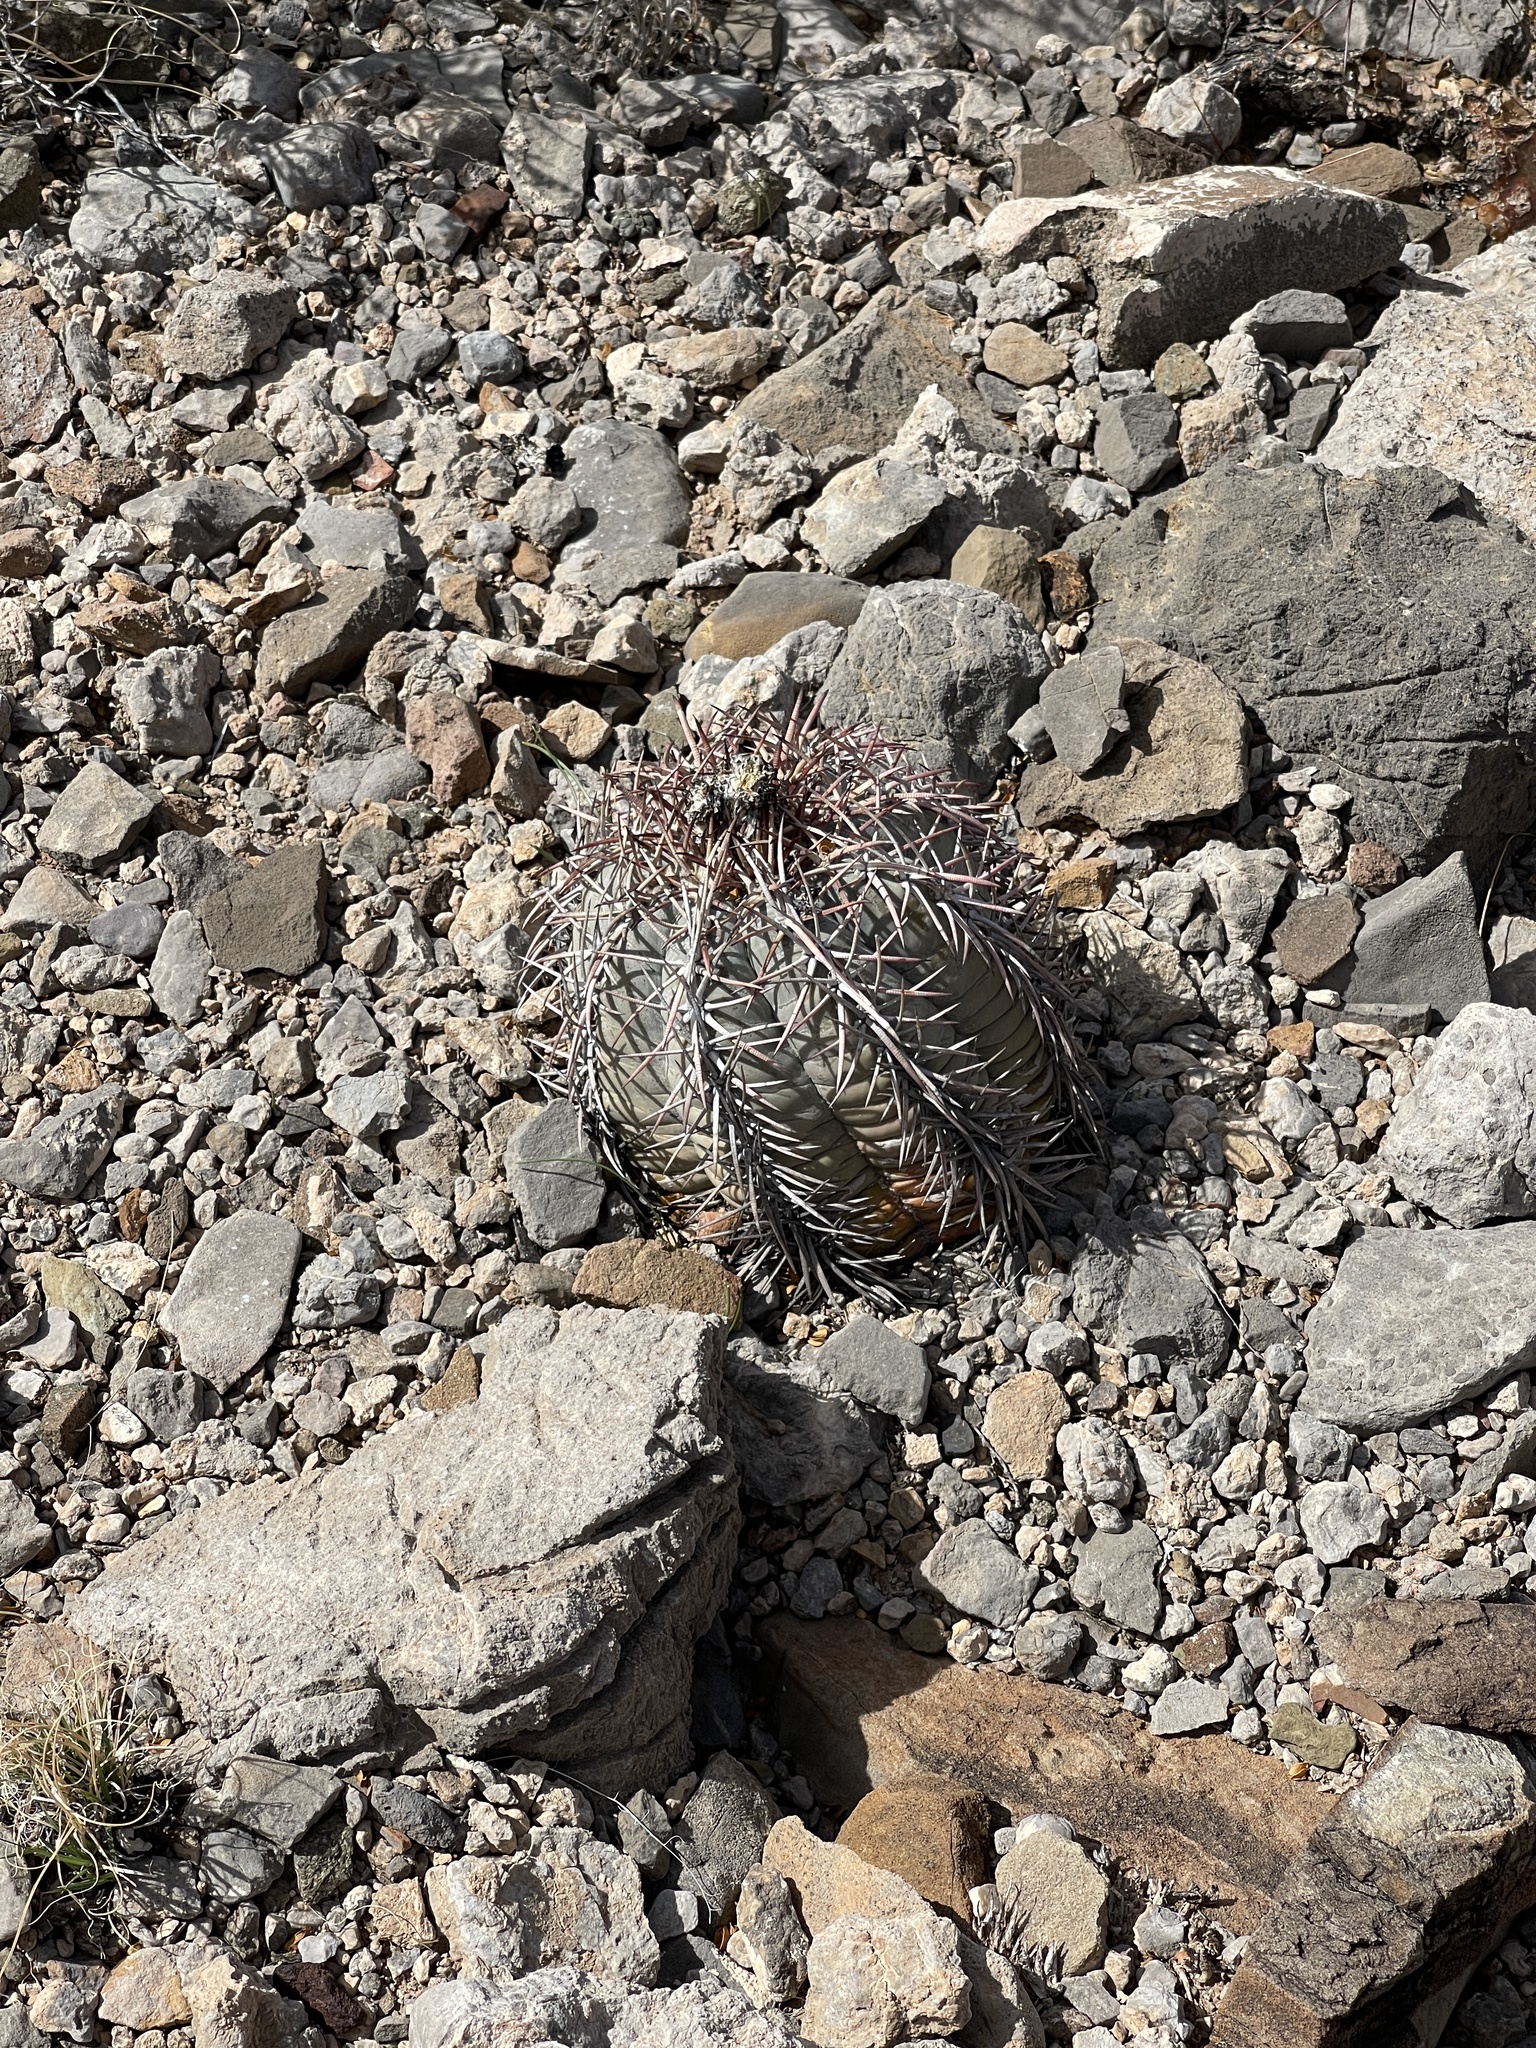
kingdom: Plantae
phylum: Tracheophyta
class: Magnoliopsida
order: Caryophyllales
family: Cactaceae
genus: Echinocactus
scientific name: Echinocactus horizonthalonius
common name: Devilshead
